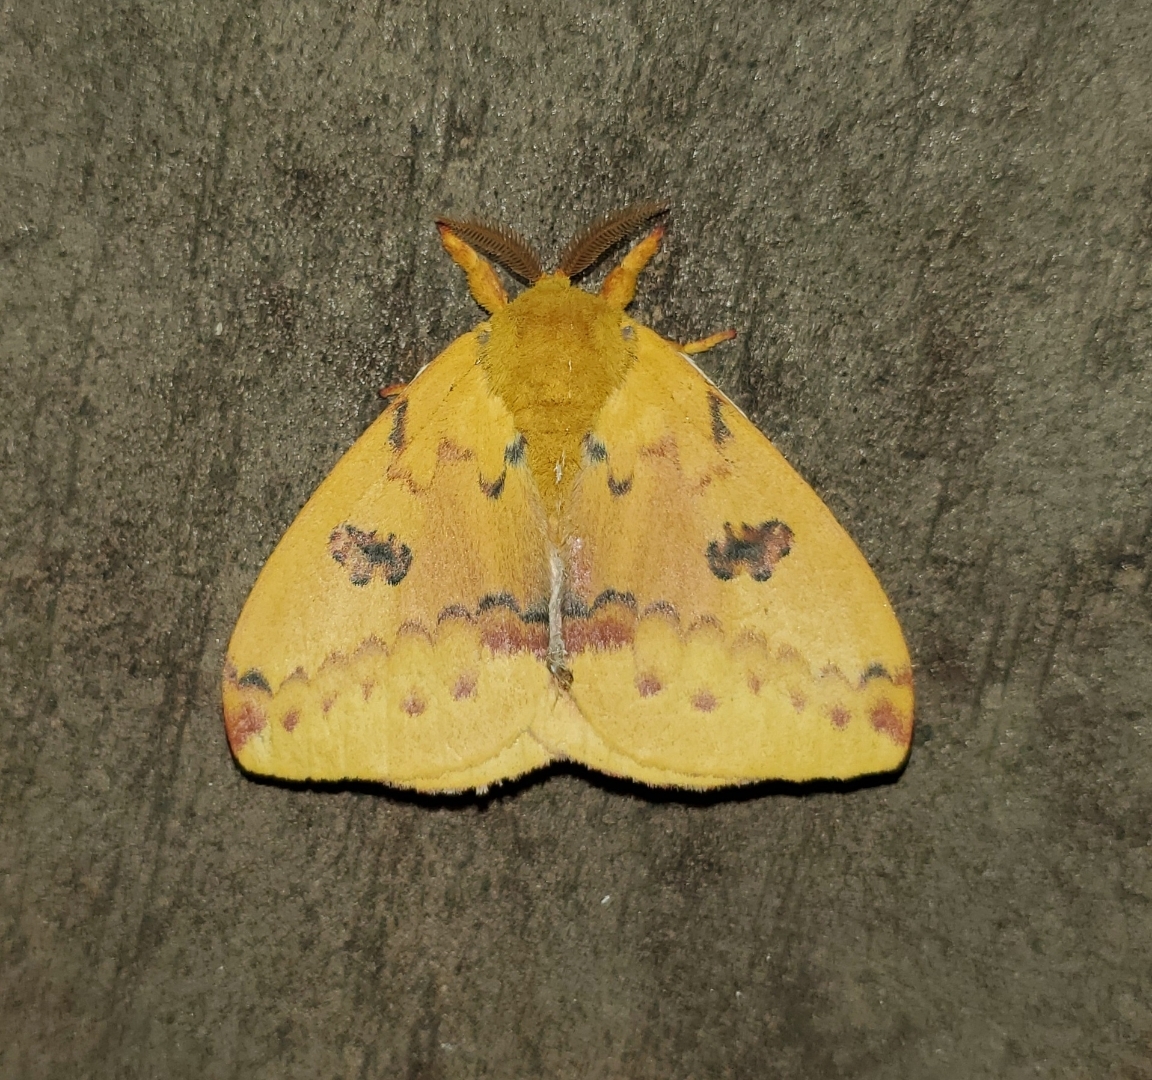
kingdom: Animalia
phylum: Arthropoda
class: Insecta
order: Lepidoptera
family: Saturniidae
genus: Automeris
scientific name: Automeris io
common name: Io moth
